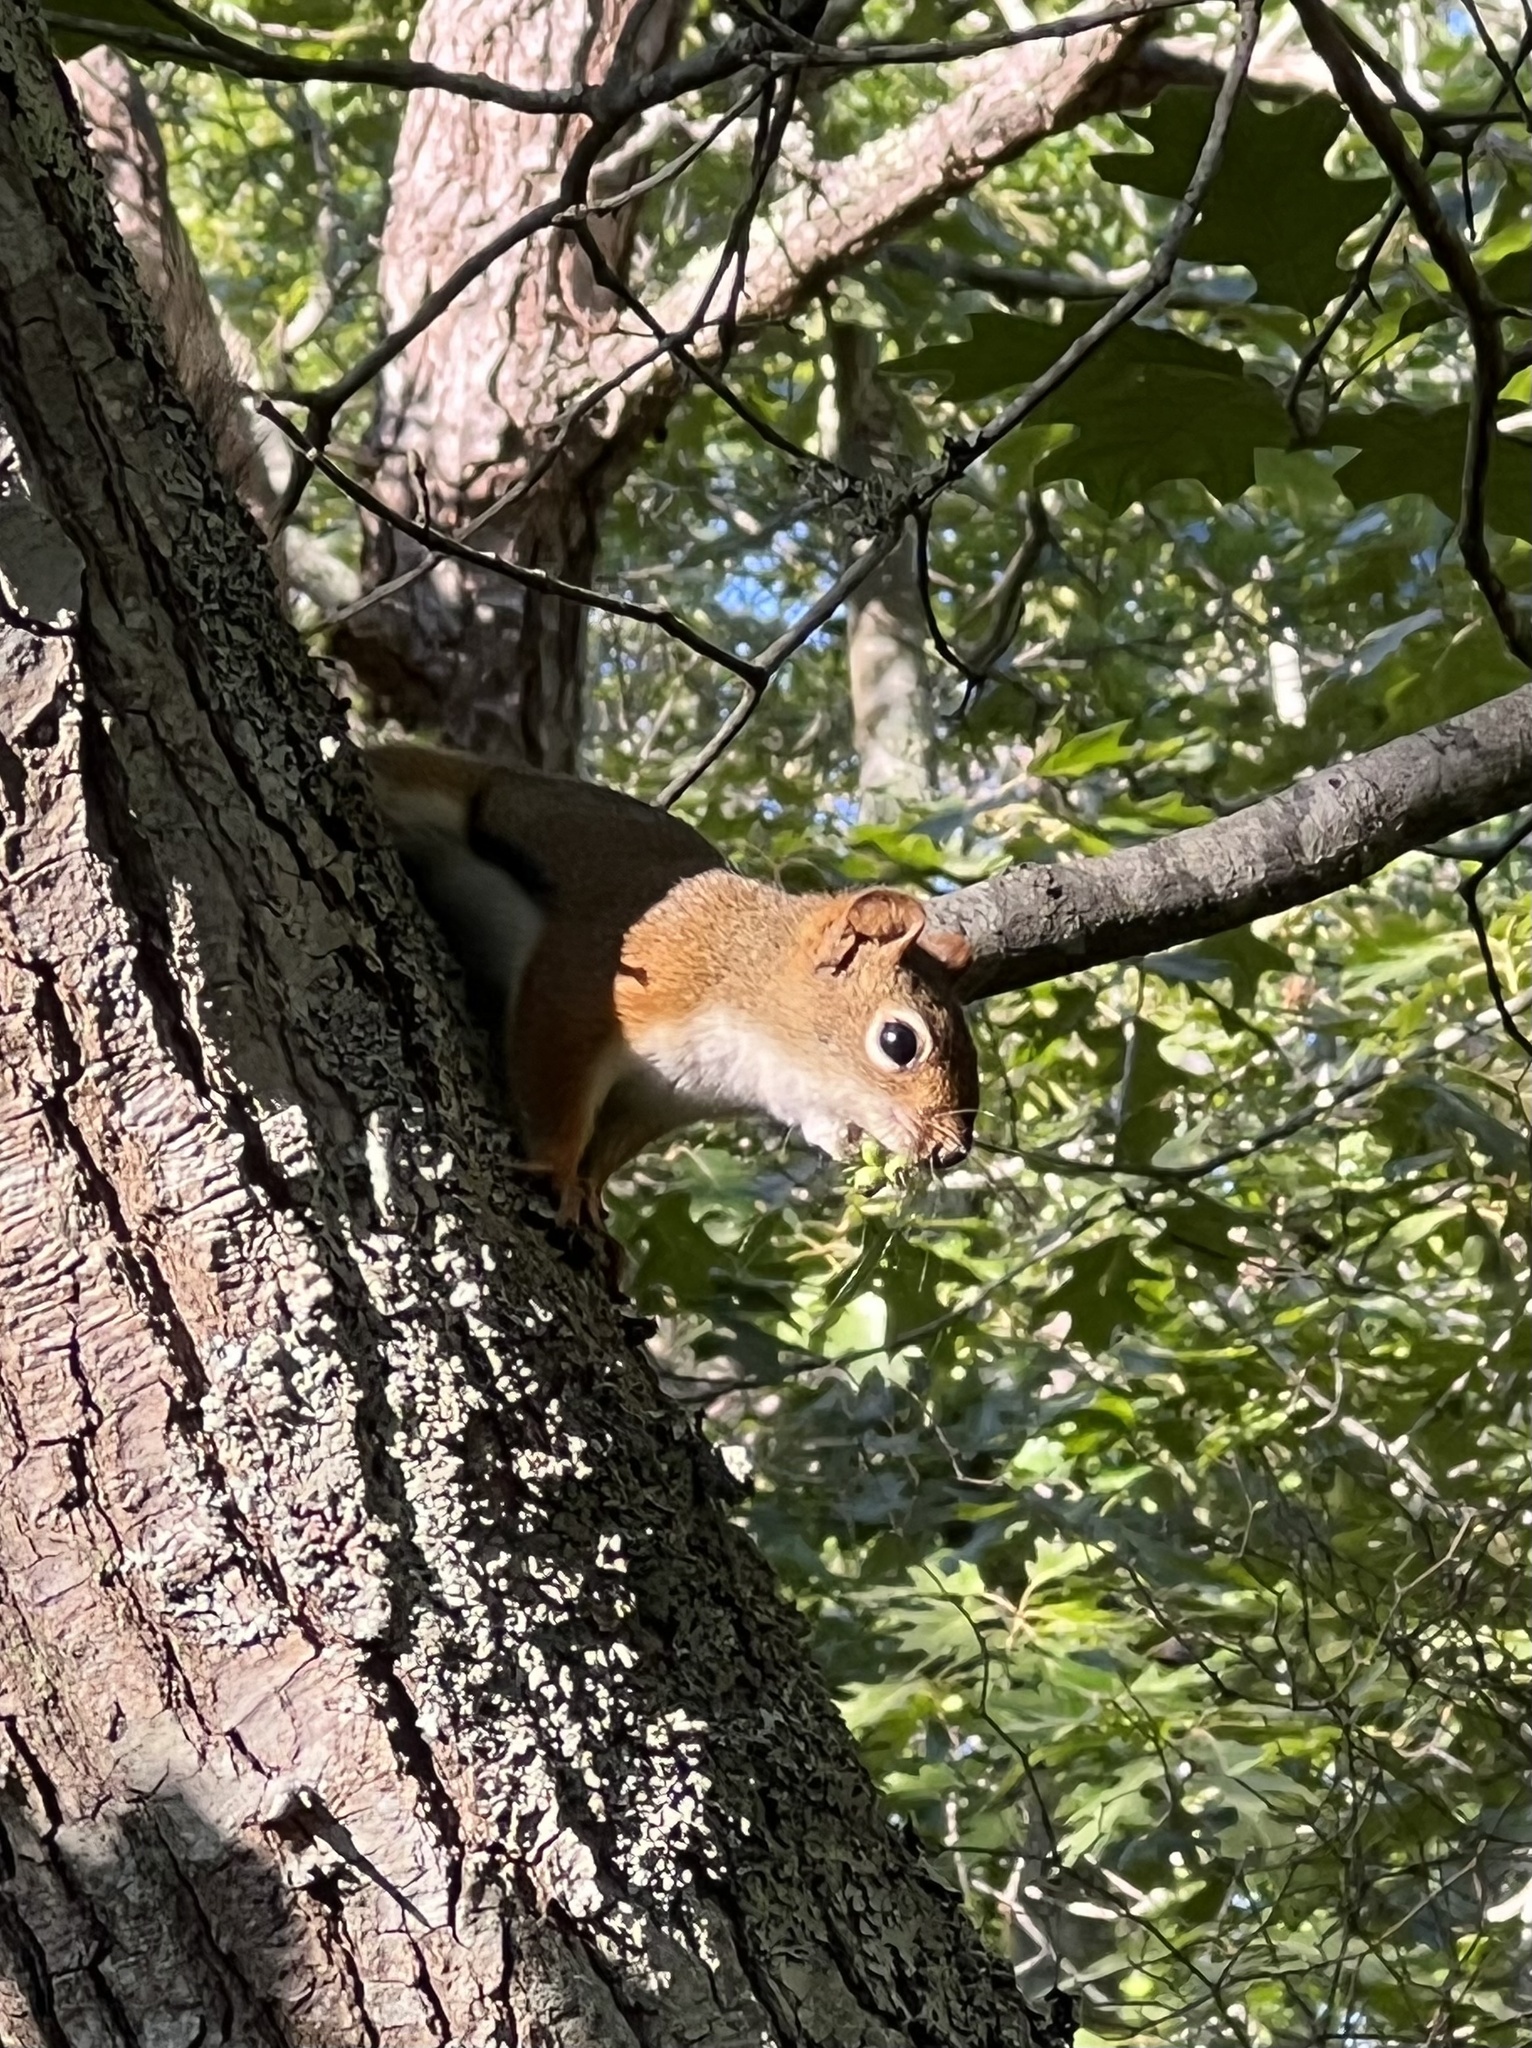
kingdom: Animalia
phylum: Chordata
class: Mammalia
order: Rodentia
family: Sciuridae
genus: Tamiasciurus
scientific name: Tamiasciurus hudsonicus
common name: Red squirrel
